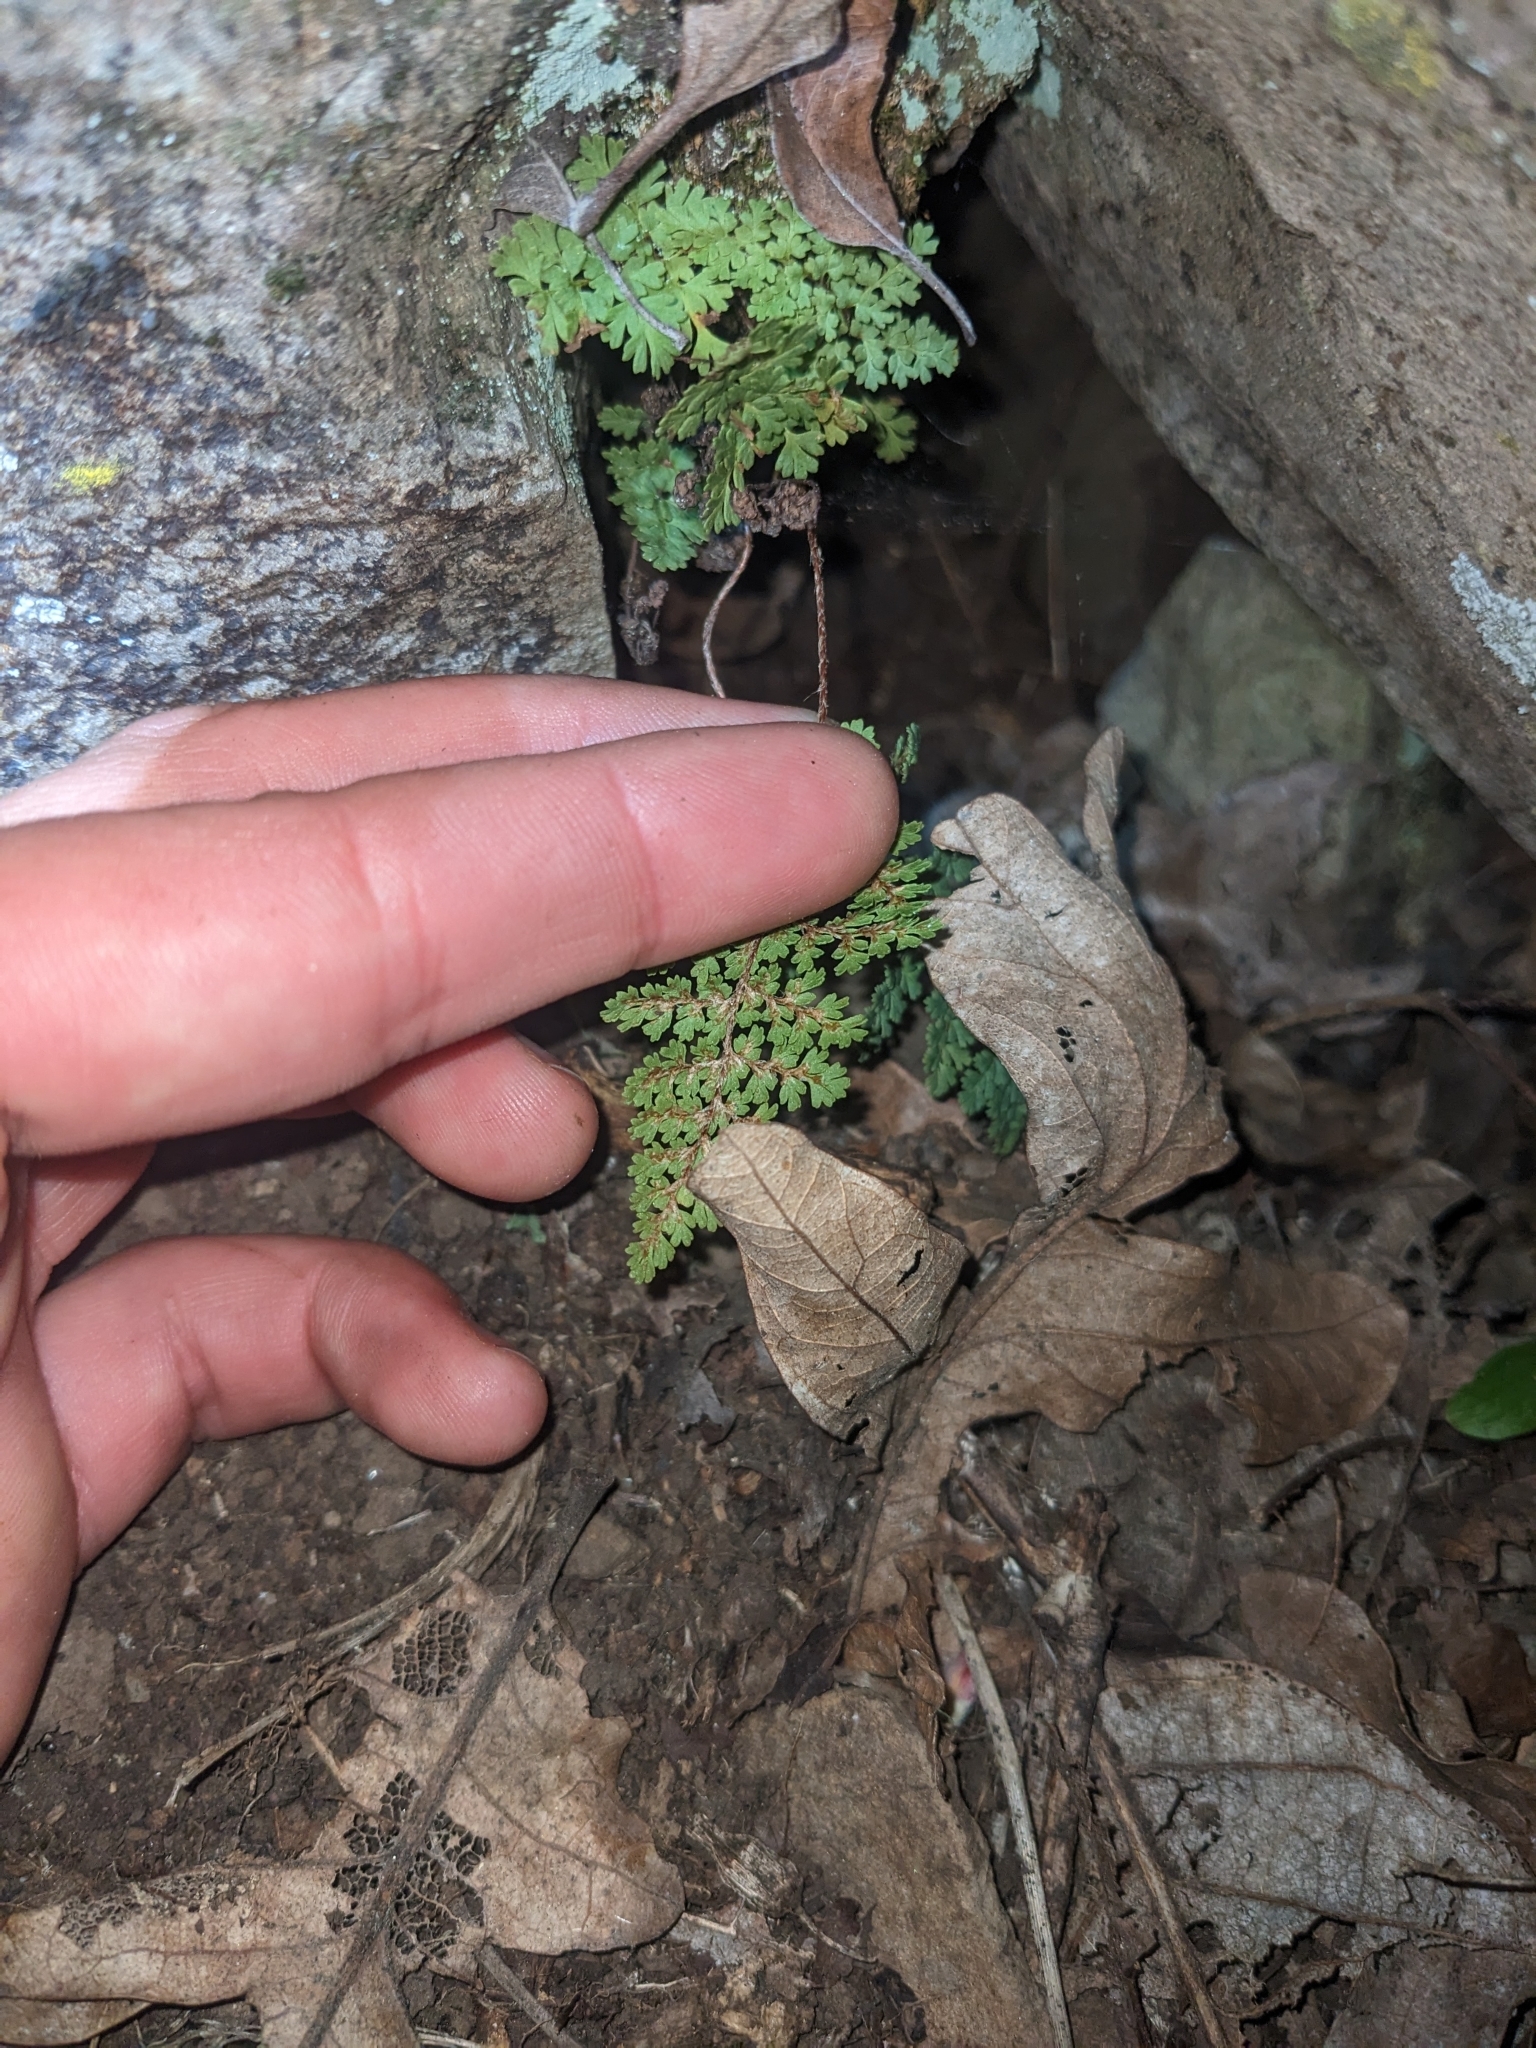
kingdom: Plantae
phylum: Tracheophyta
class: Polypodiopsida
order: Polypodiales
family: Pteridaceae
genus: Myriopteris
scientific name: Myriopteris fendleri
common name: Fendler's lip fern
